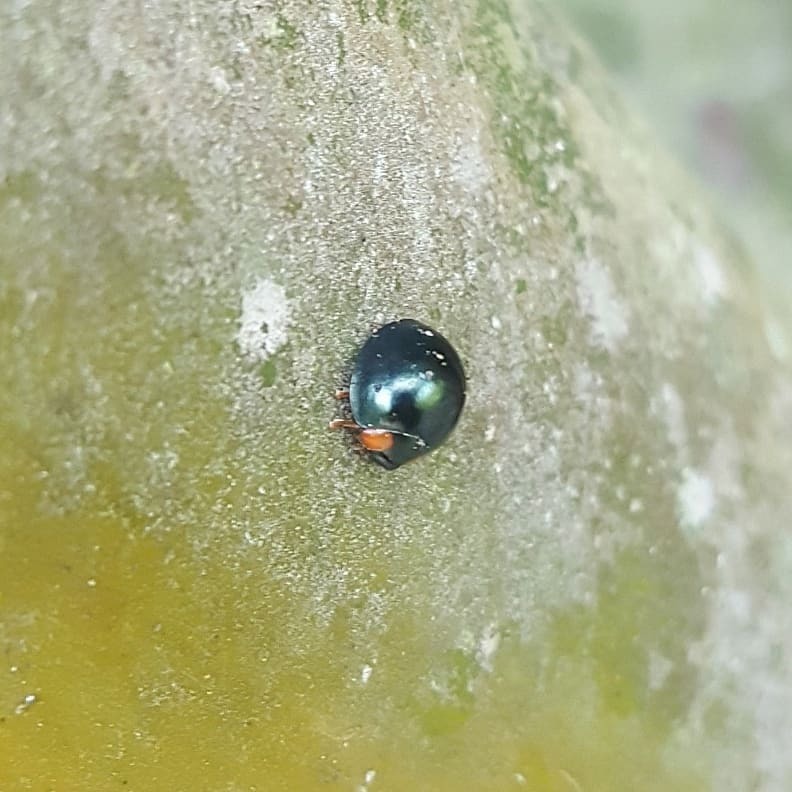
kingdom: Animalia
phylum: Arthropoda
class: Insecta
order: Coleoptera
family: Coccinellidae
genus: Curinus
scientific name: Curinus coeruleus
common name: Ladybird beetle
